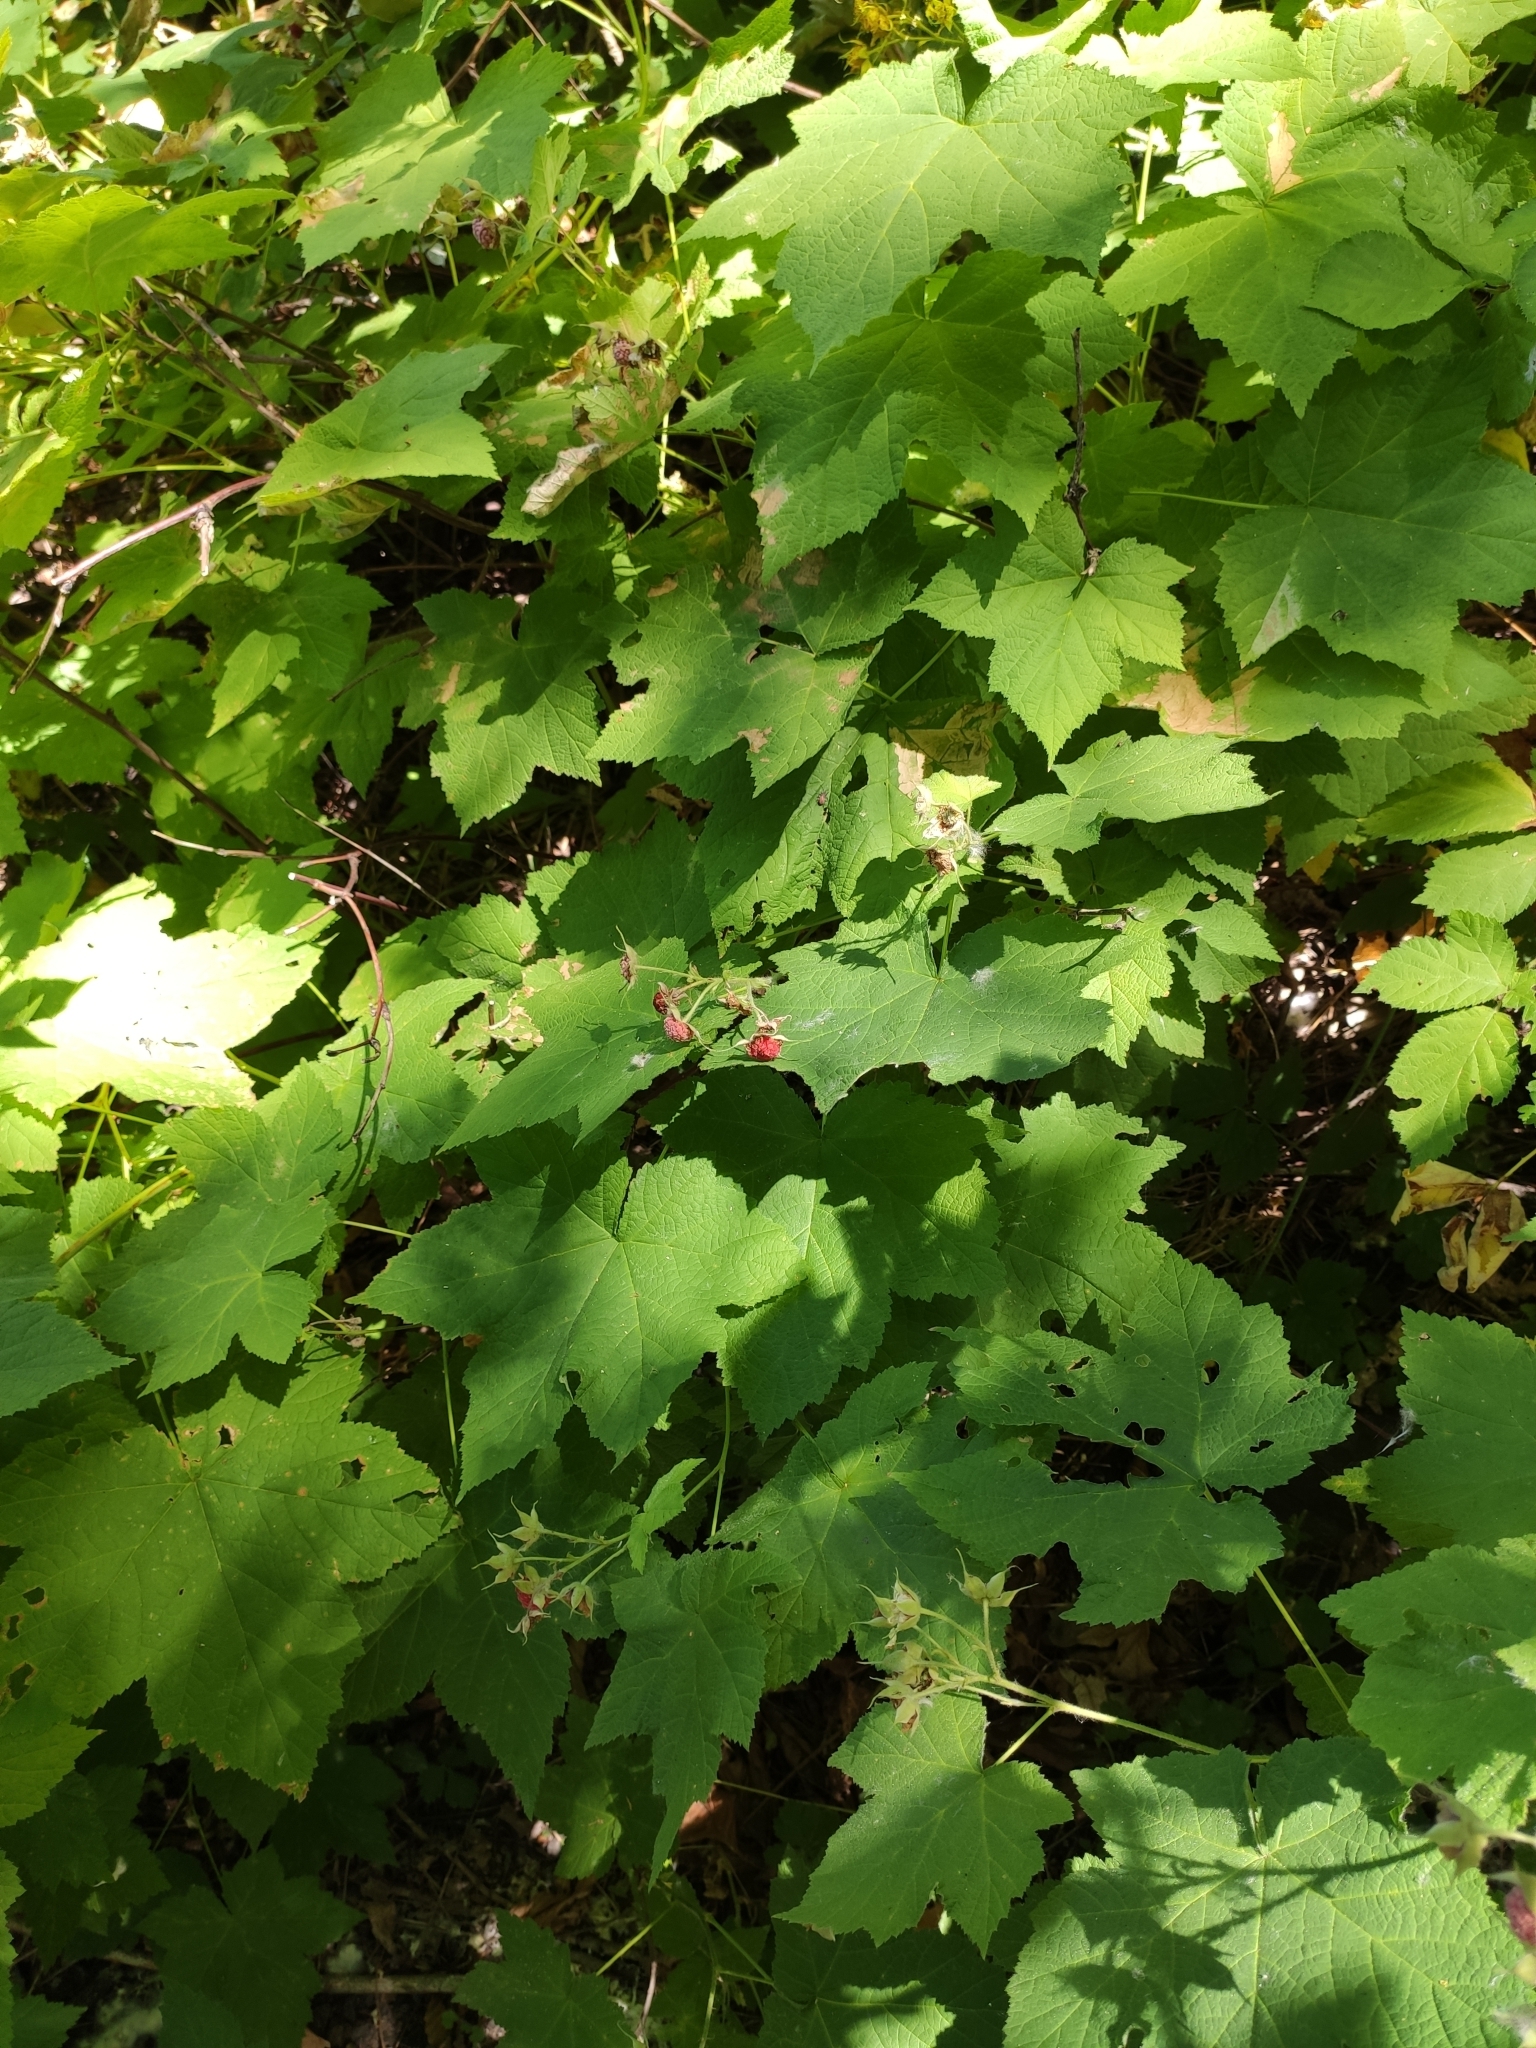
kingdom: Plantae
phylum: Tracheophyta
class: Magnoliopsida
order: Rosales
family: Rosaceae
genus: Rubus
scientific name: Rubus parviflorus
